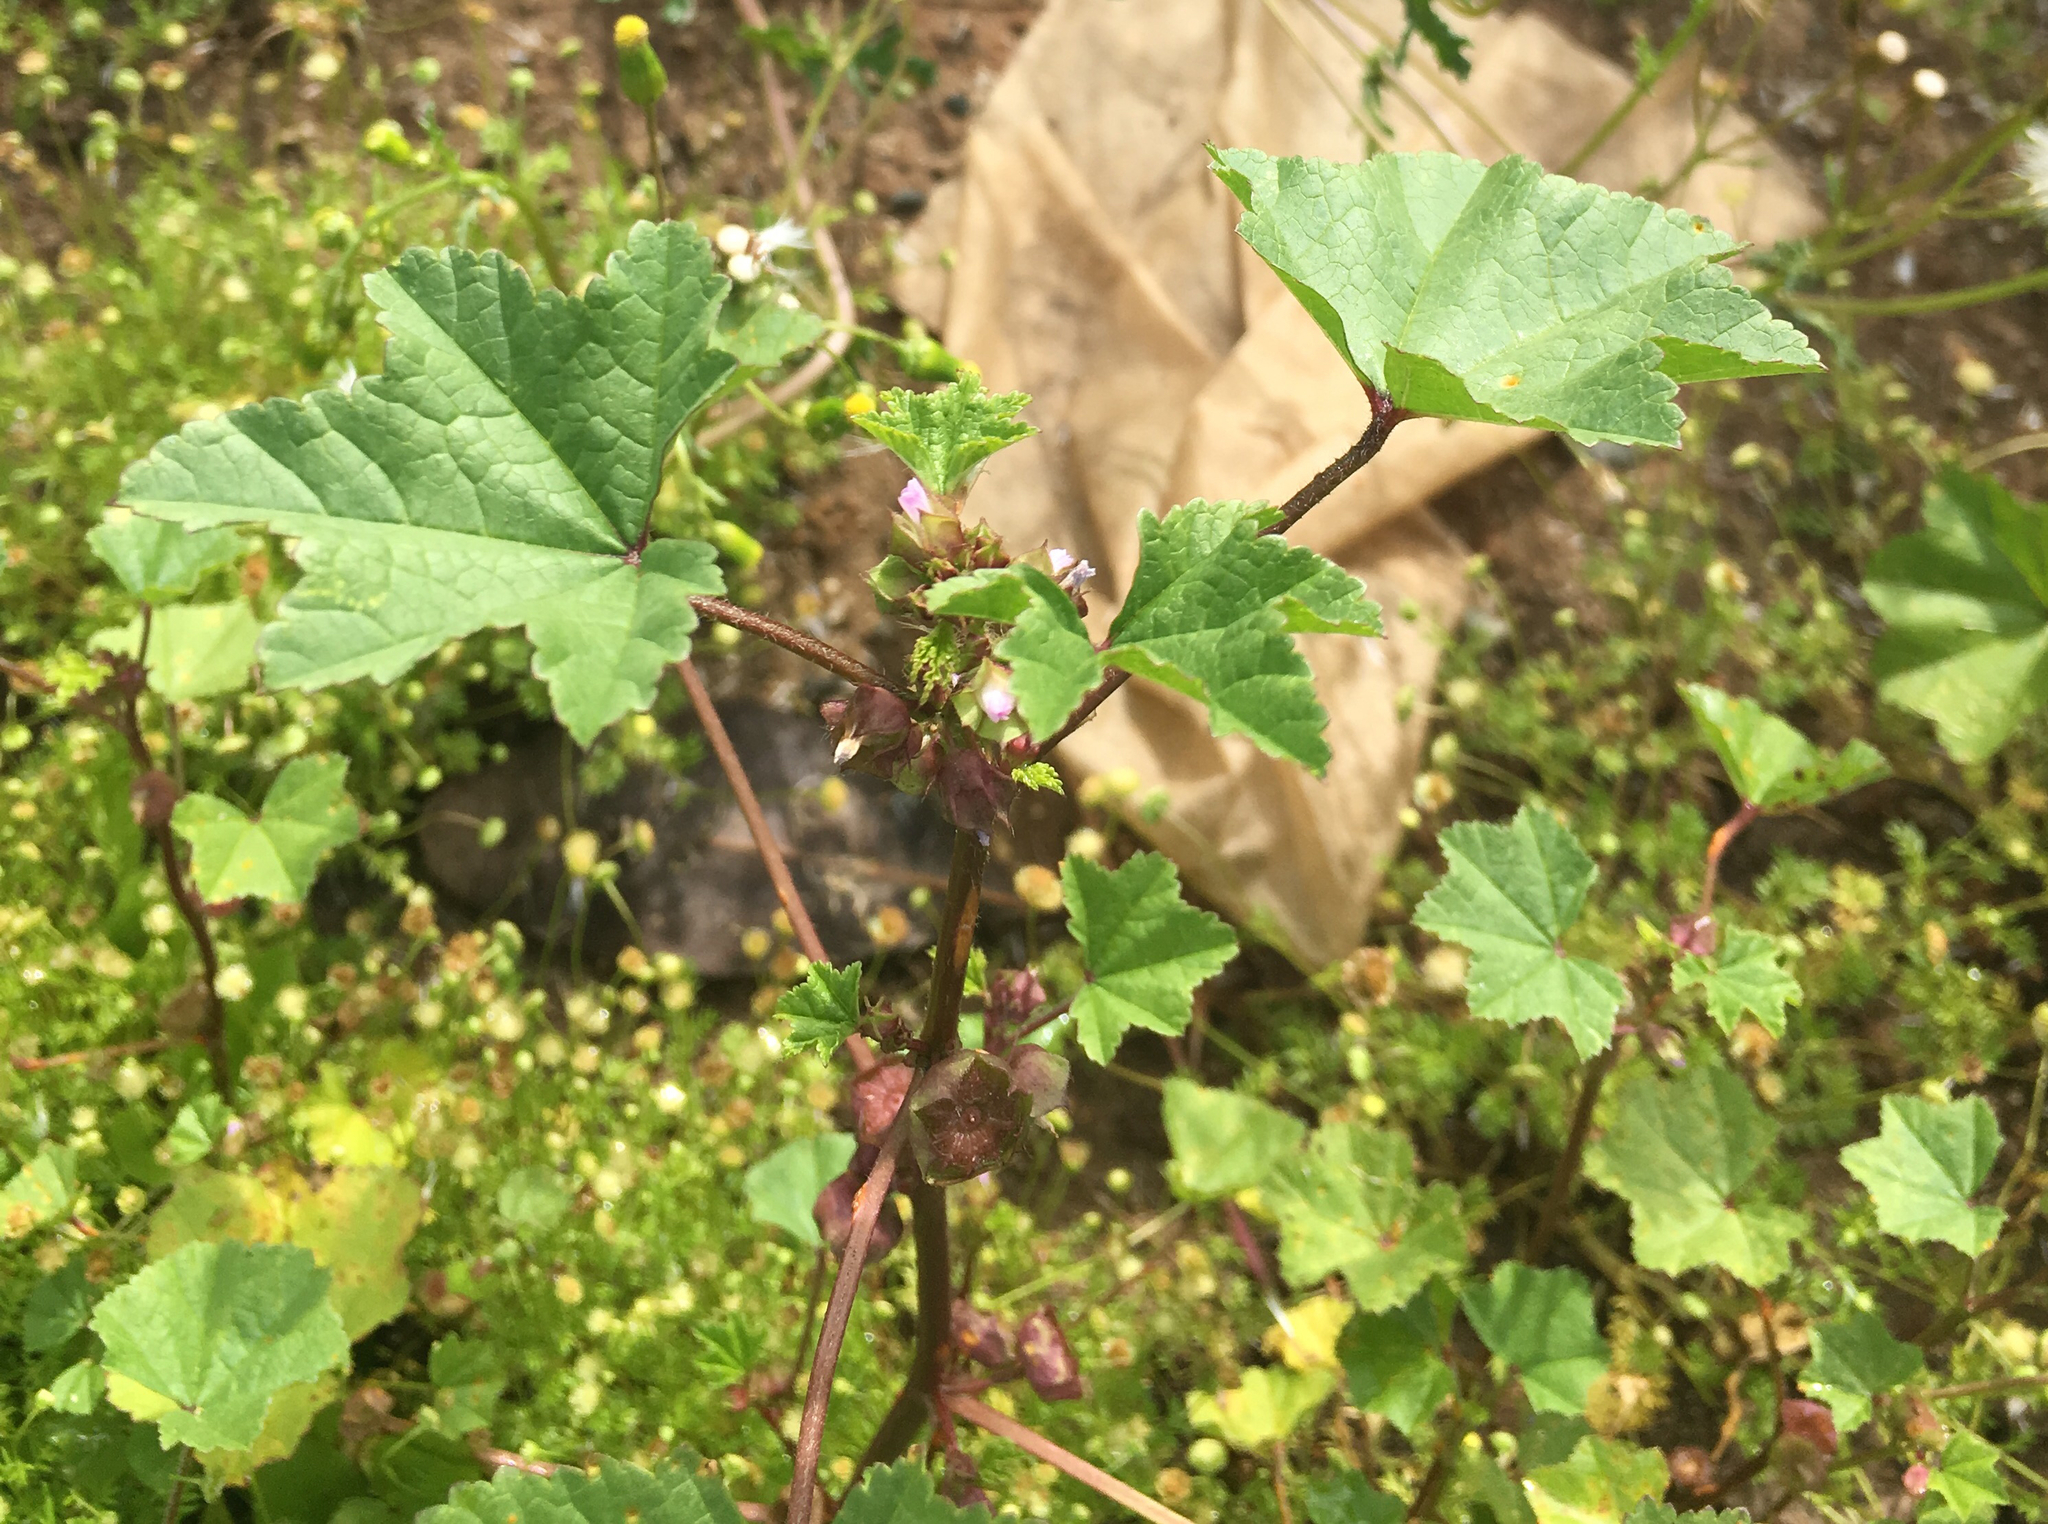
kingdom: Plantae
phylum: Tracheophyta
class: Magnoliopsida
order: Malvales
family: Malvaceae
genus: Malva
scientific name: Malva parviflora
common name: Least mallow
